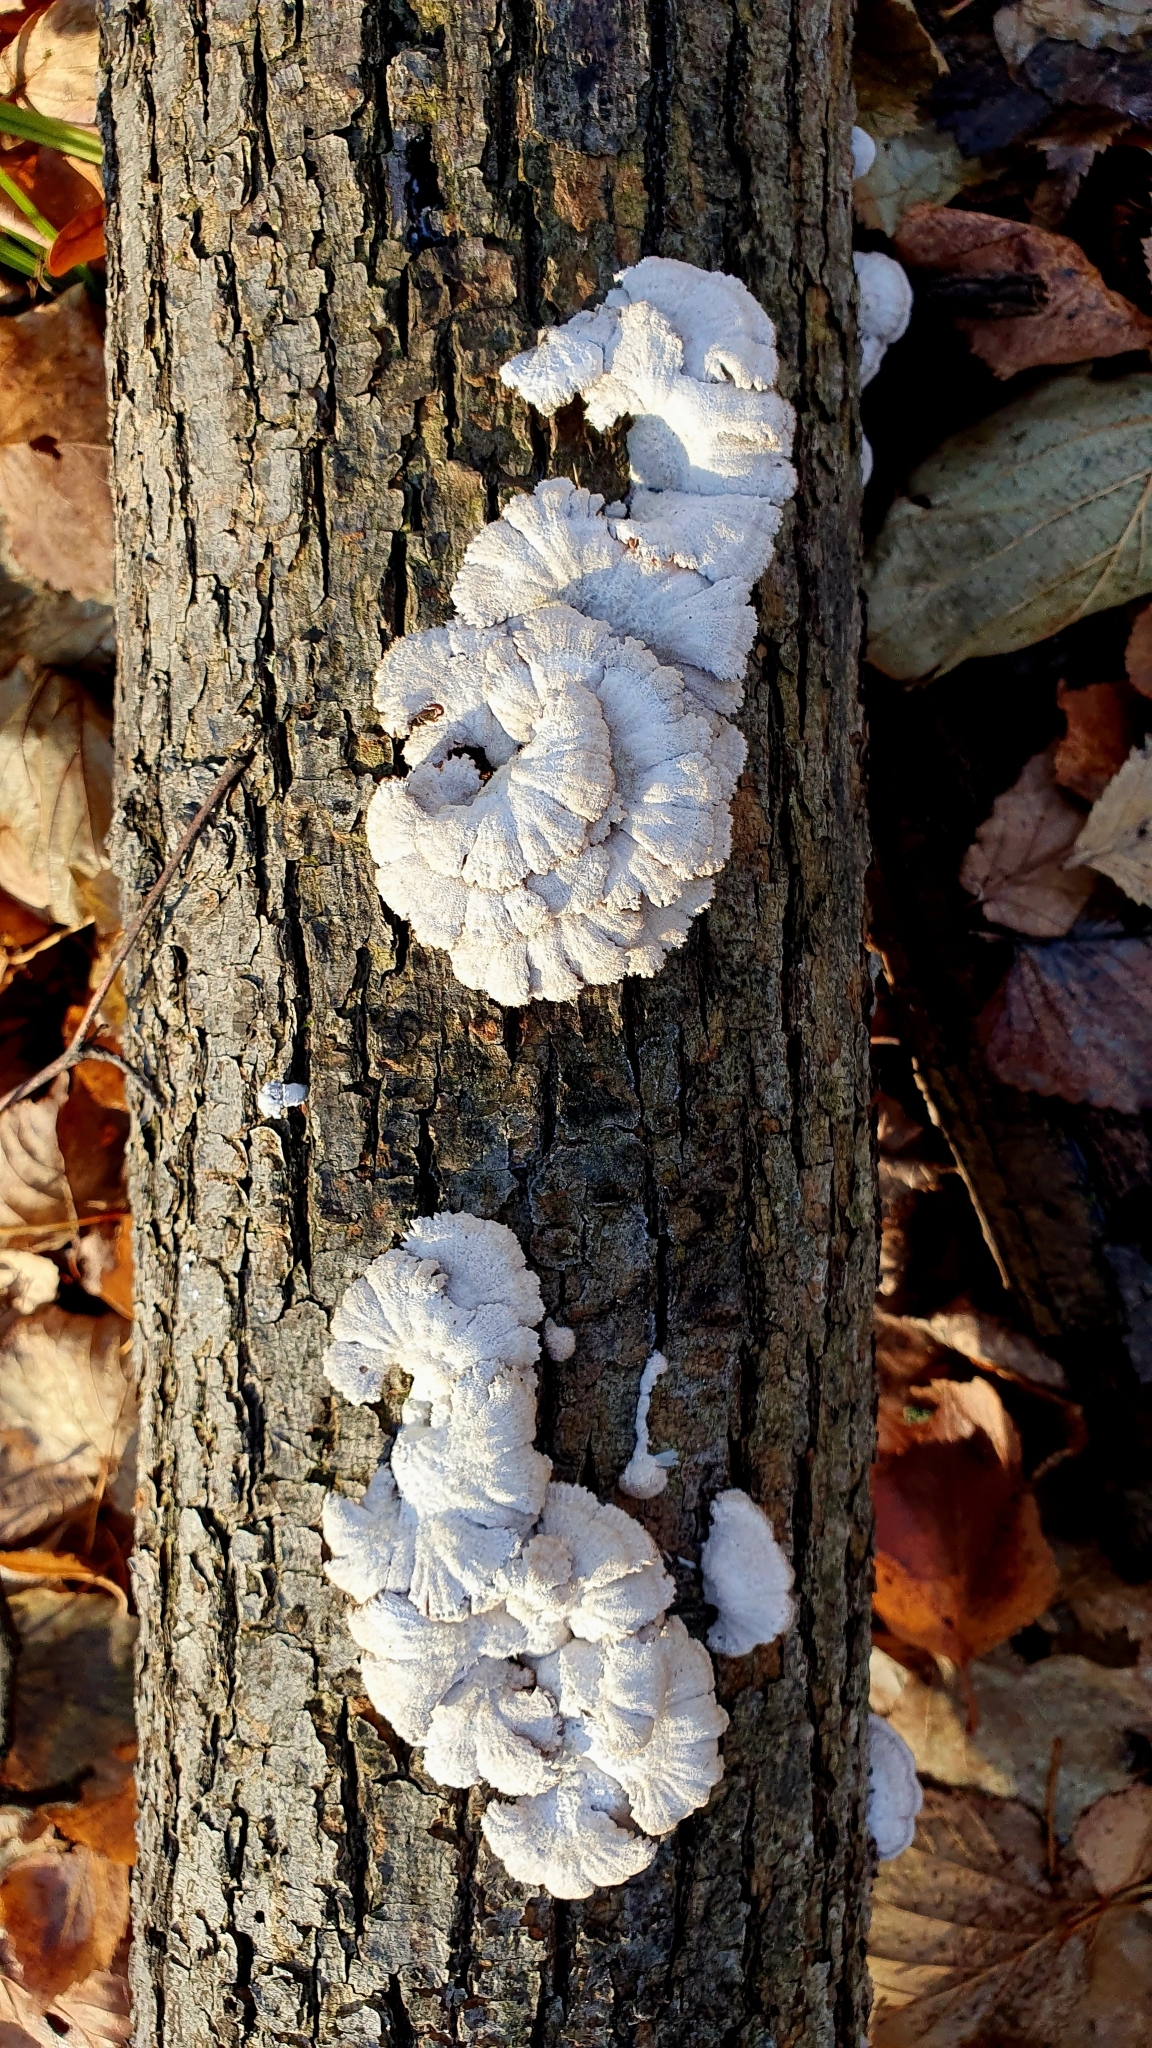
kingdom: Fungi
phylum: Basidiomycota
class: Agaricomycetes
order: Agaricales
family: Schizophyllaceae
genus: Schizophyllum
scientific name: Schizophyllum commune
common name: Common porecrust
